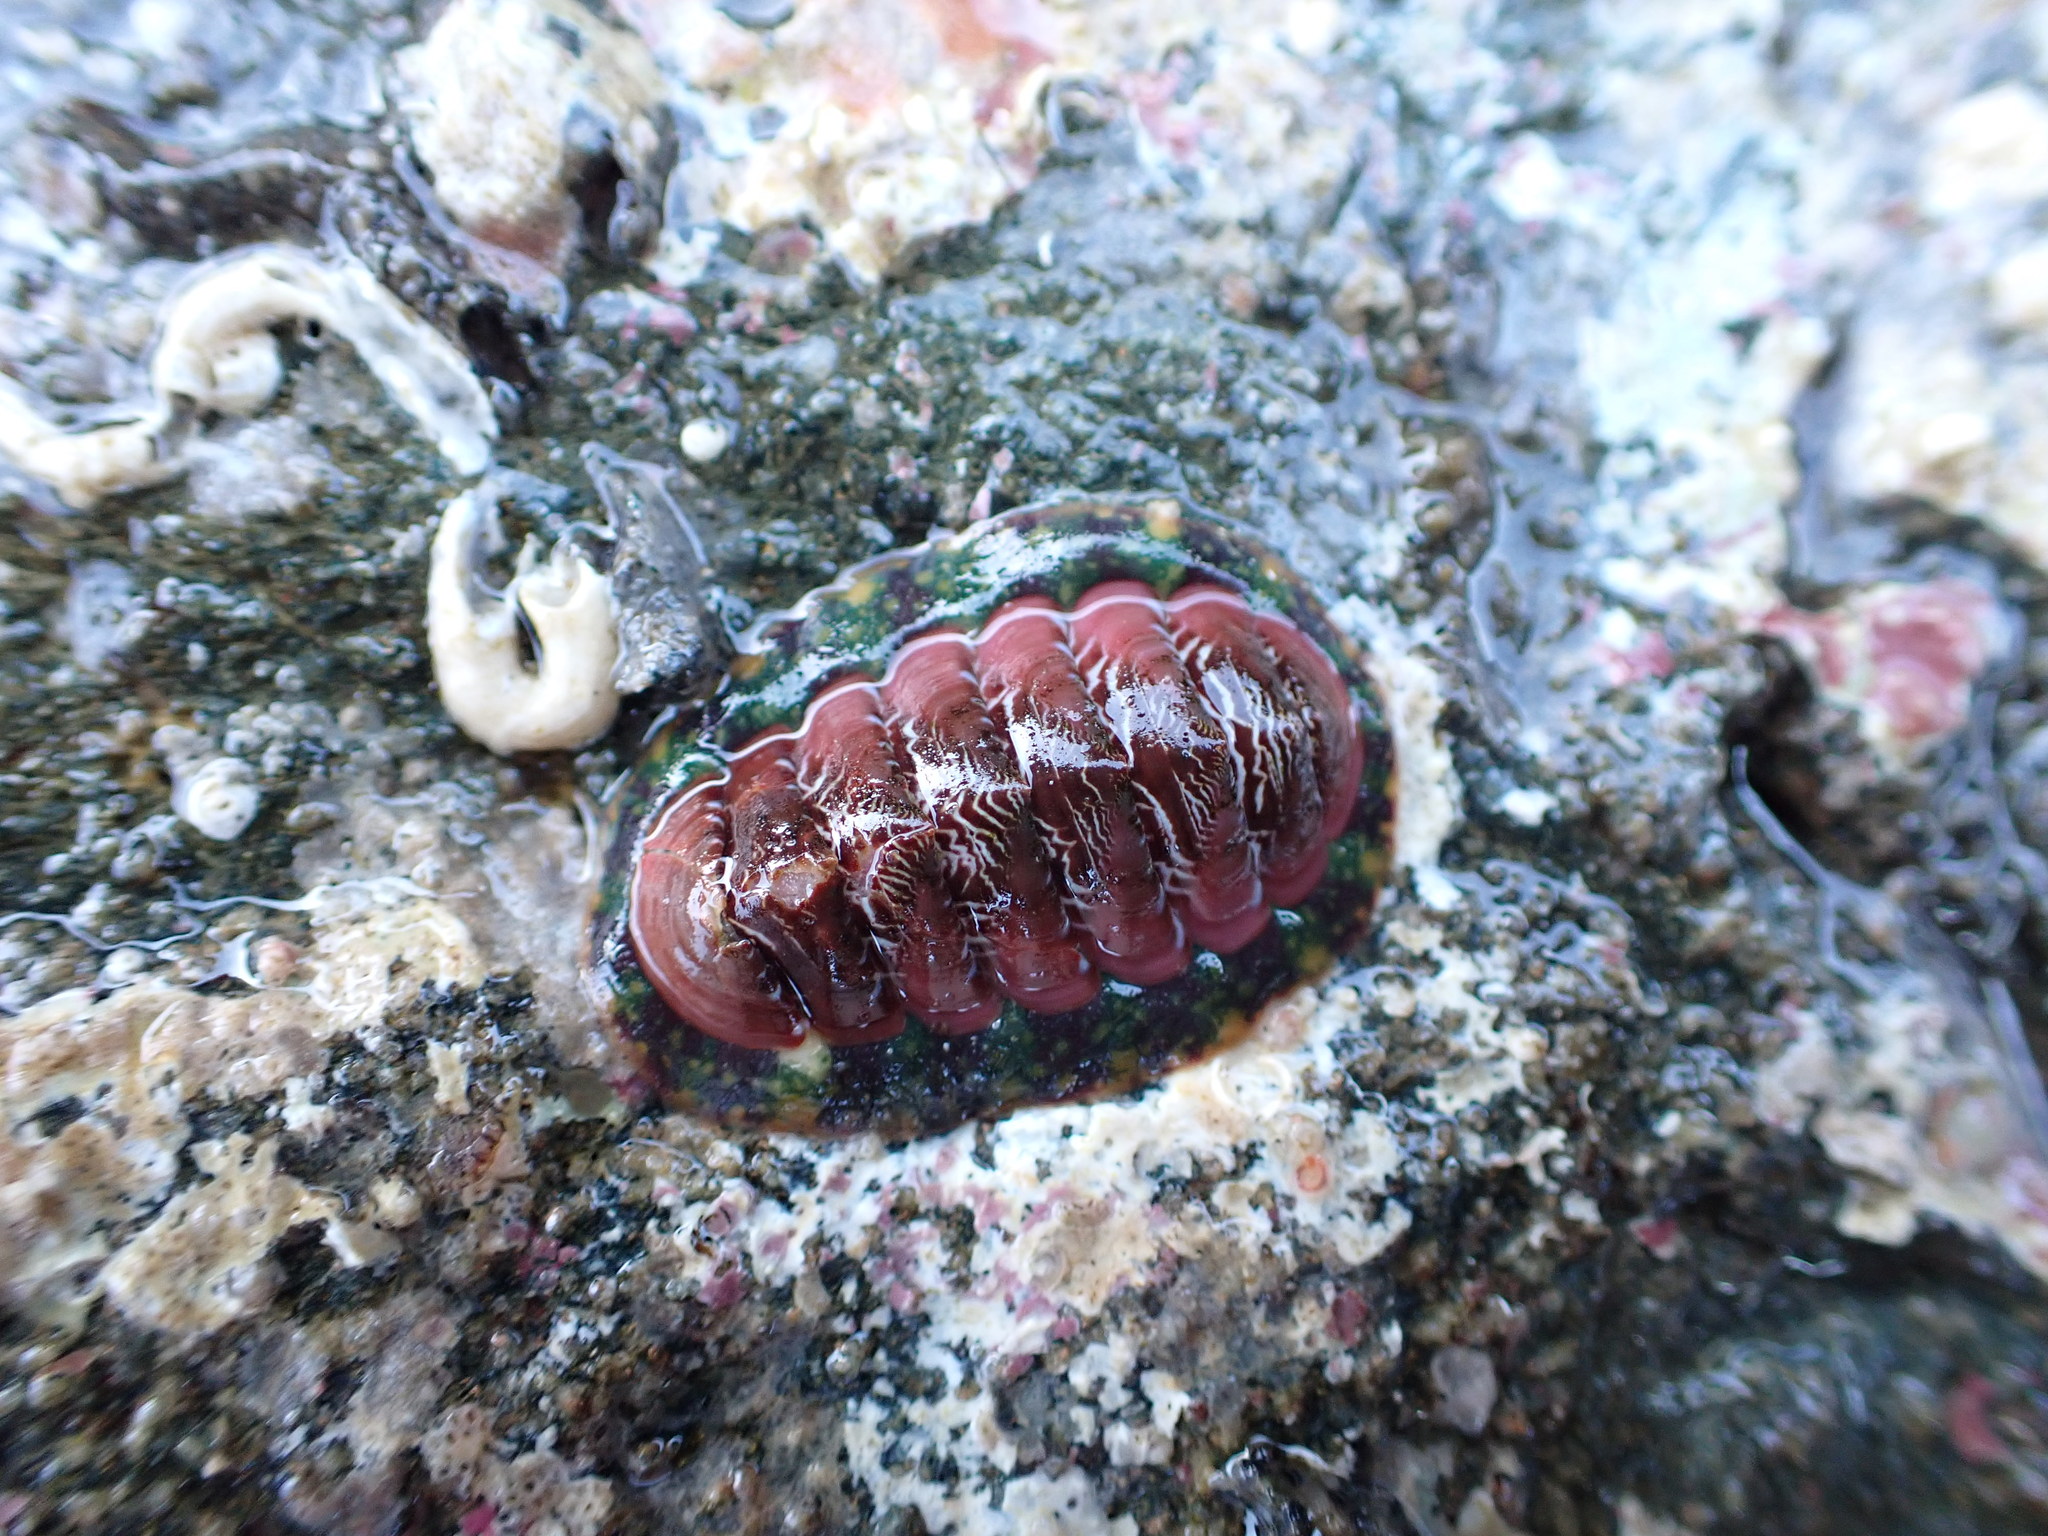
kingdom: Animalia
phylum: Mollusca
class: Polyplacophora
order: Chitonida
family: Tonicellidae
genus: Tonicella
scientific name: Tonicella insignis
